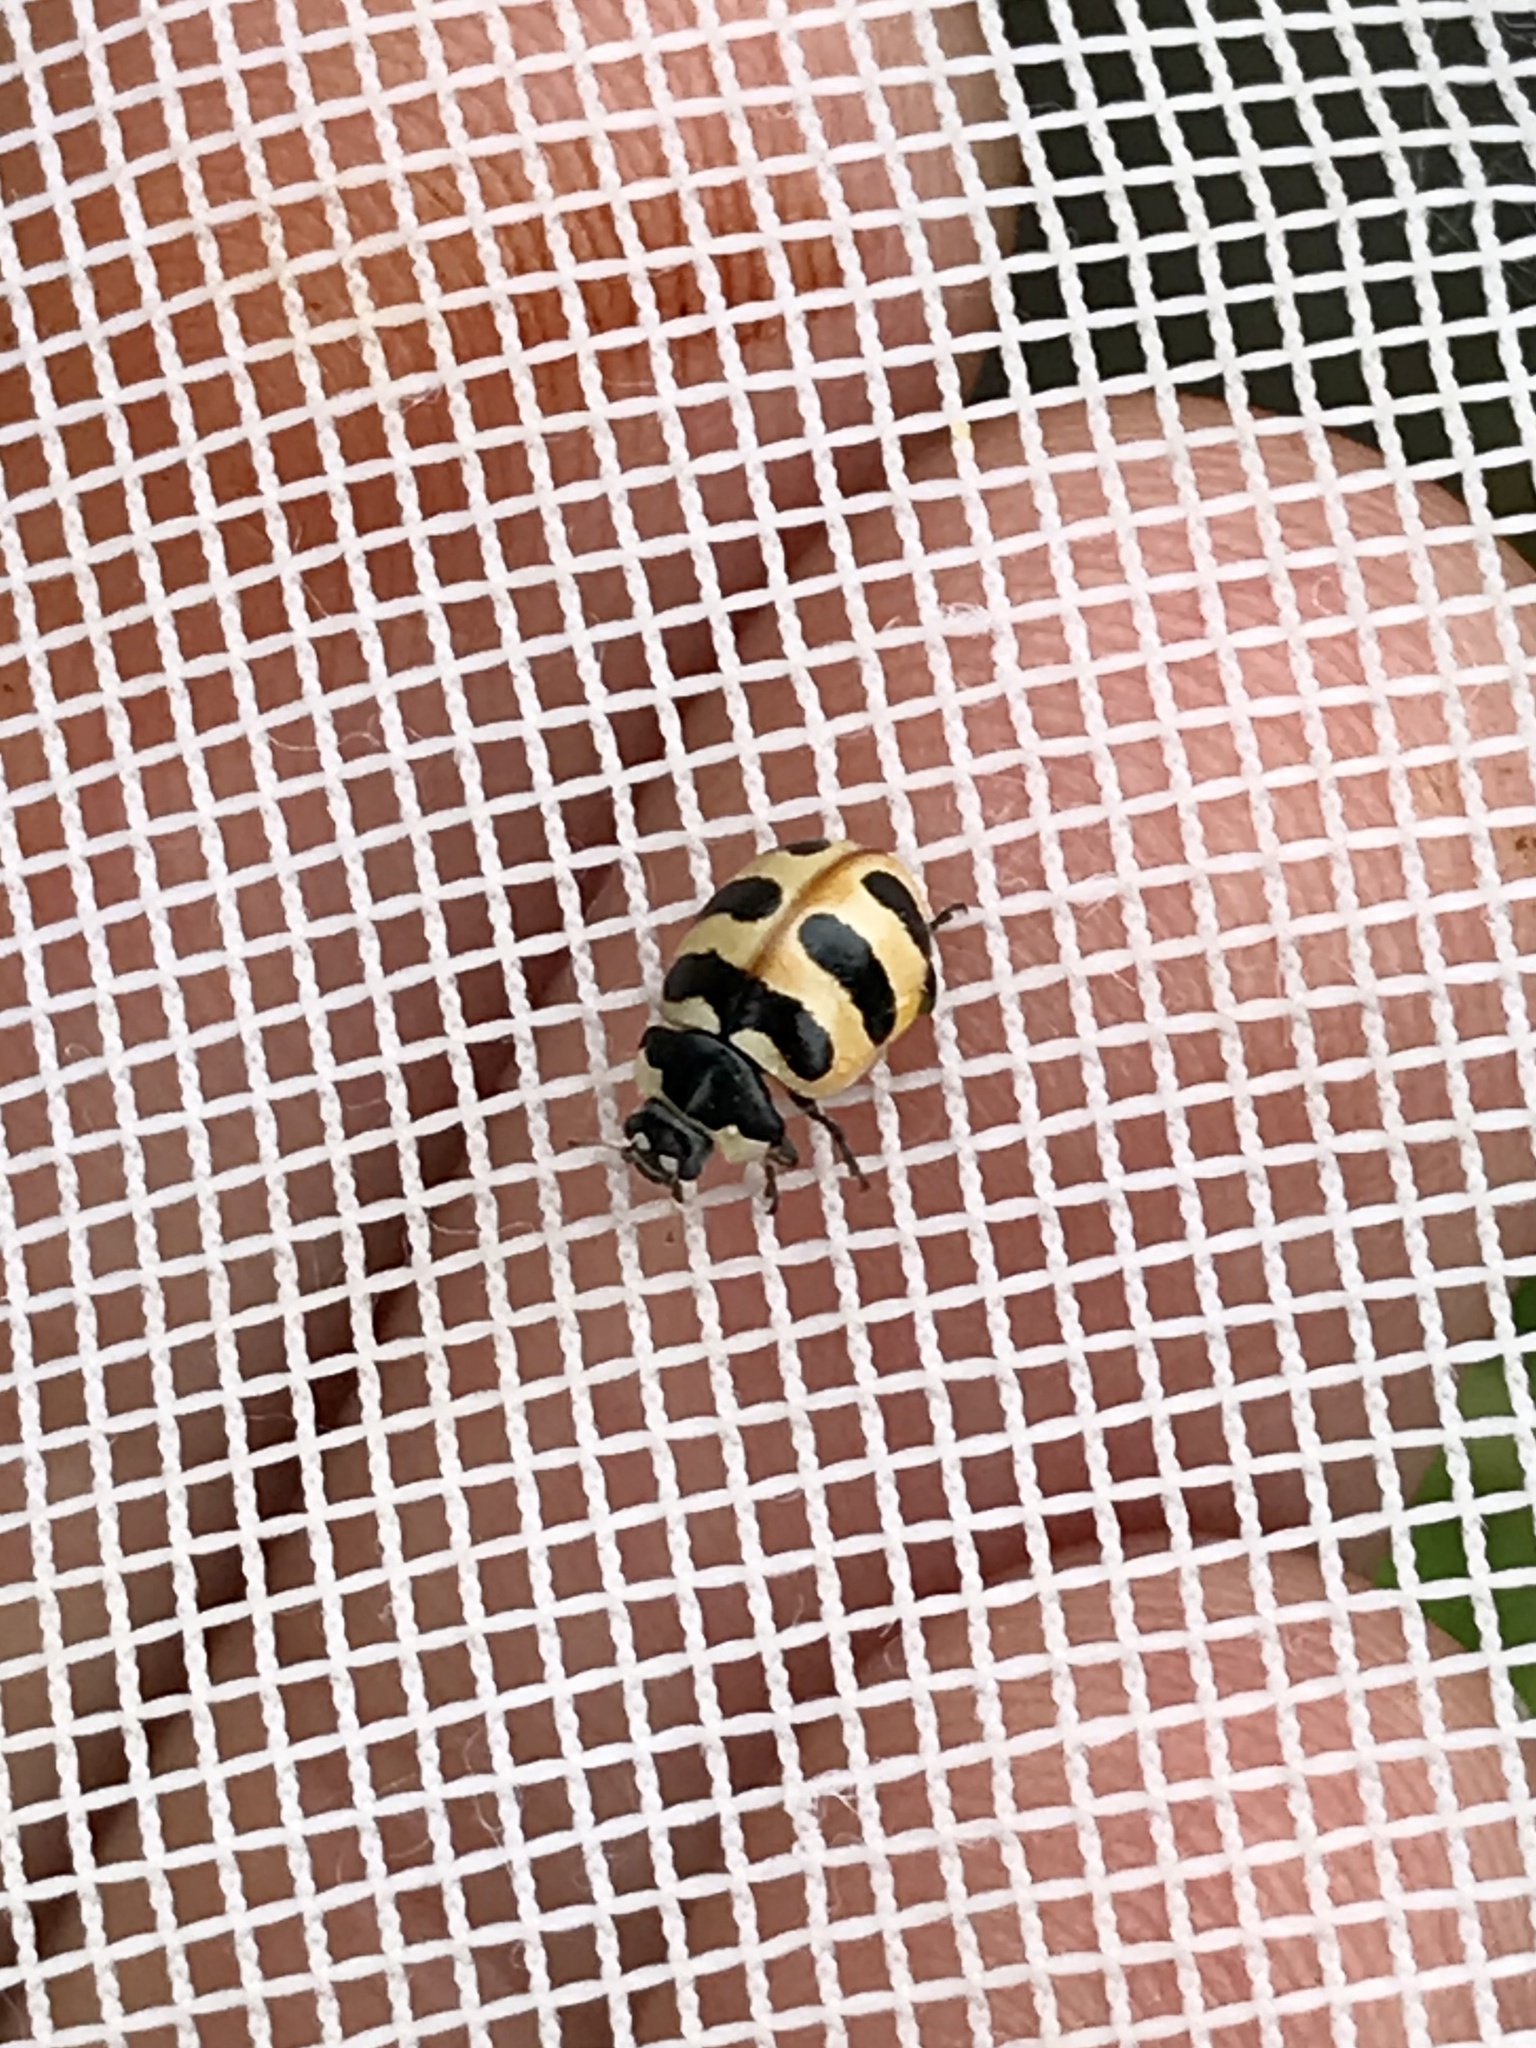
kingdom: Animalia
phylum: Arthropoda
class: Insecta
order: Coleoptera
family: Coccinellidae
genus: Coccinella
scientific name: Coccinella trifasciata
